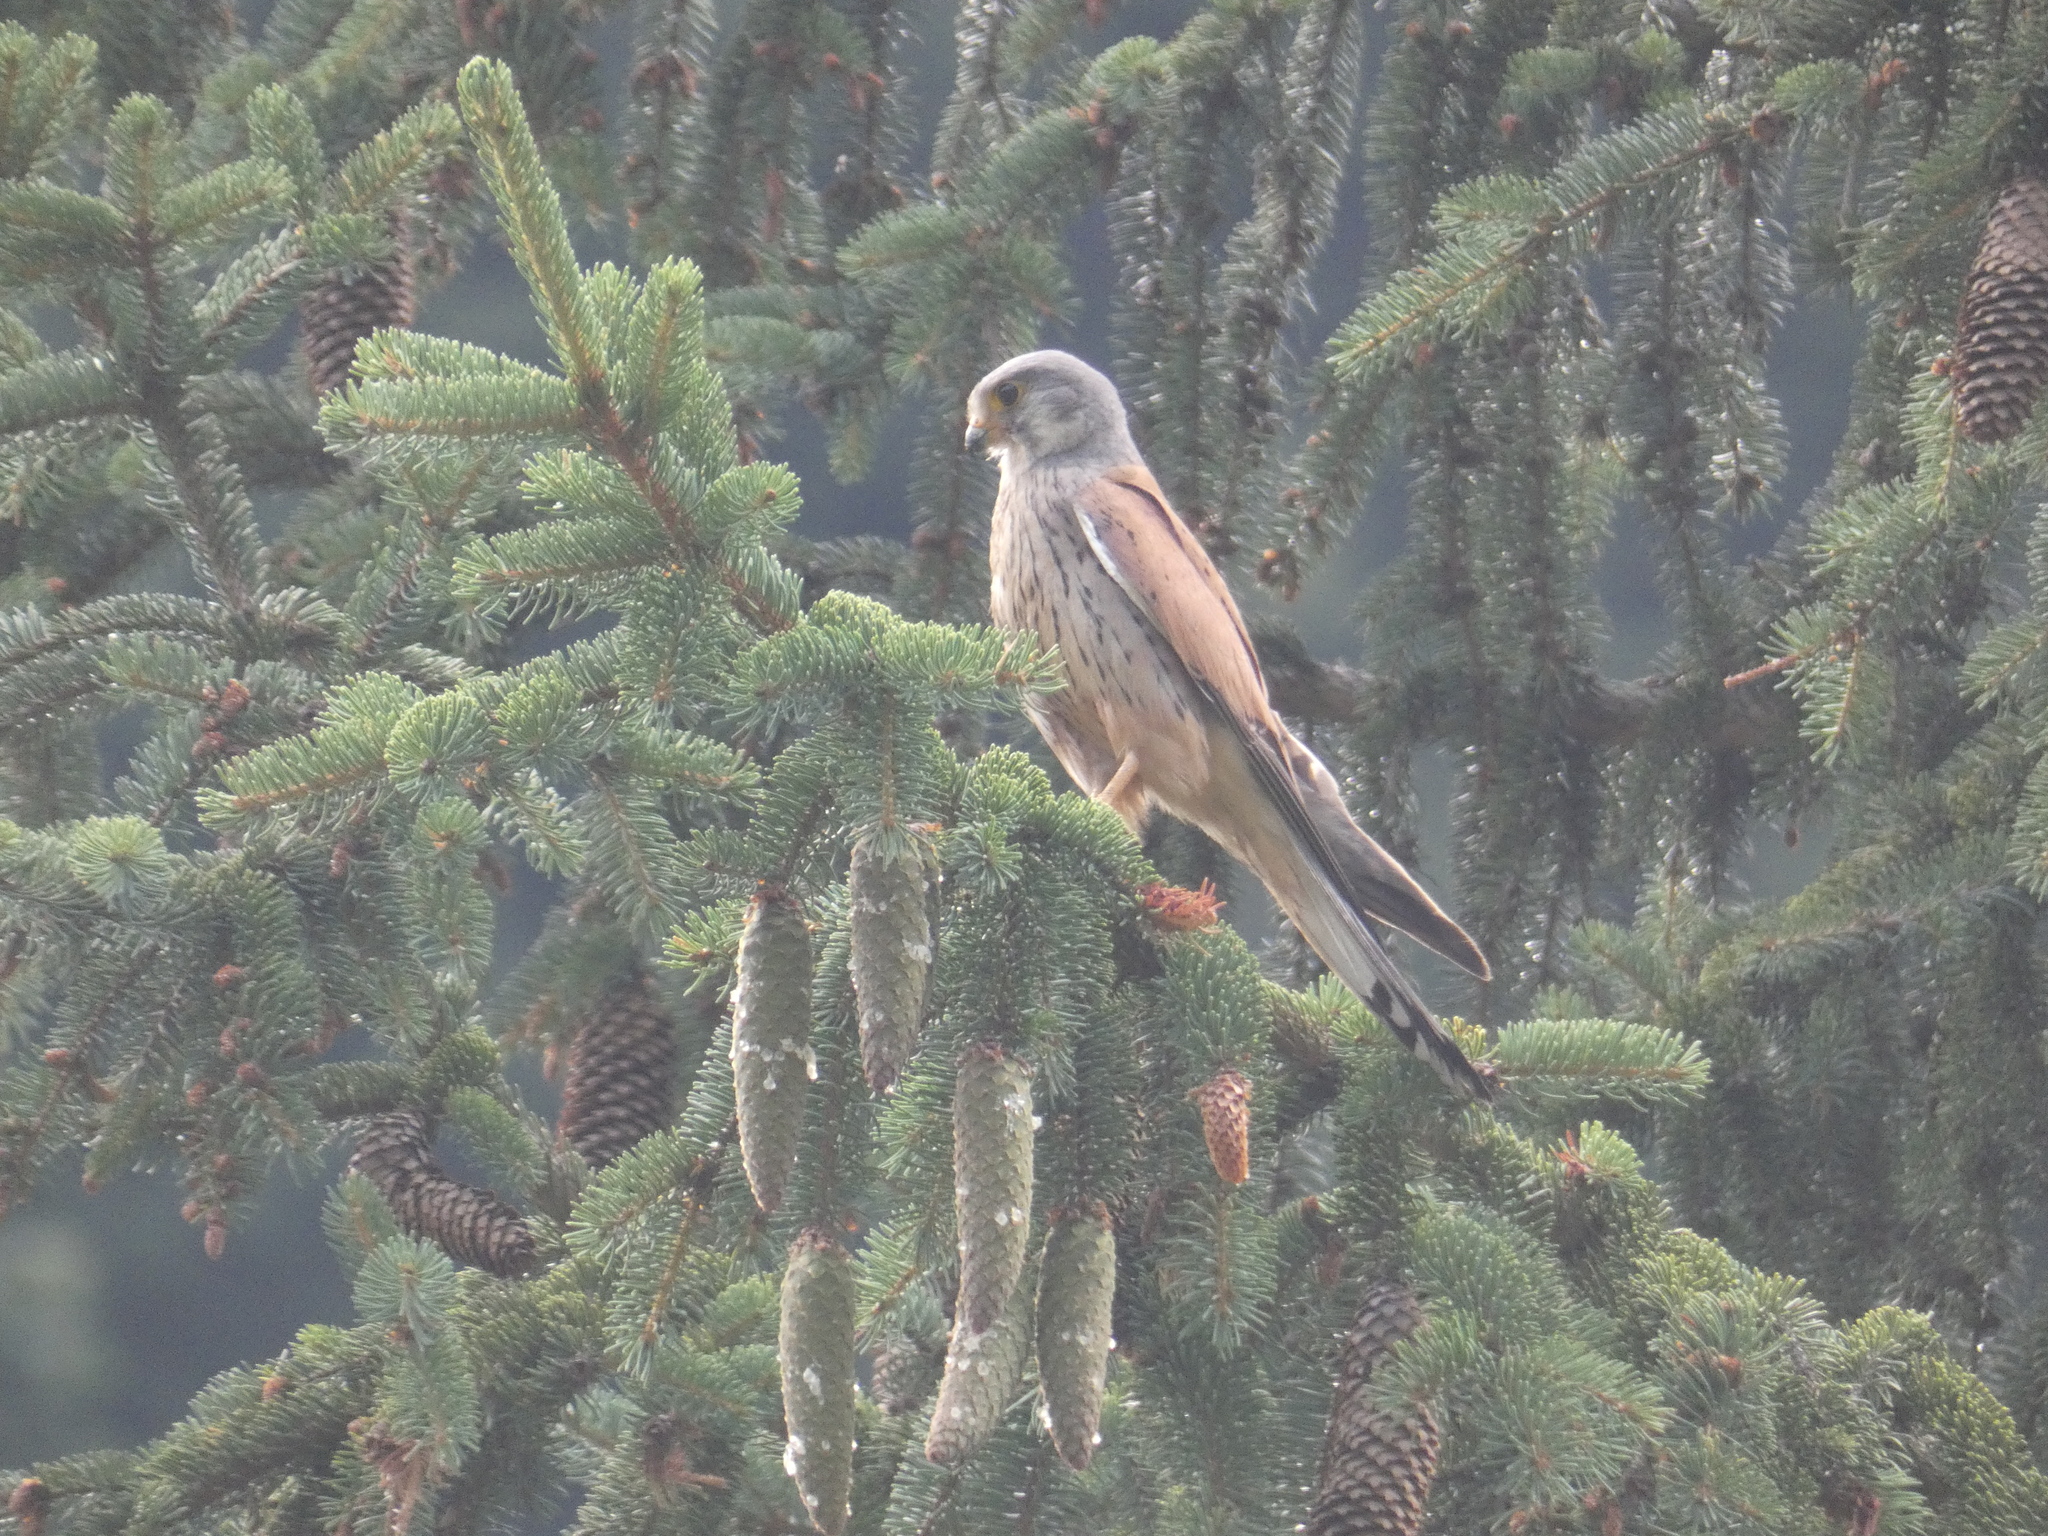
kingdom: Animalia
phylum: Chordata
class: Aves
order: Falconiformes
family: Falconidae
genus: Falco
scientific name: Falco tinnunculus
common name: Common kestrel
